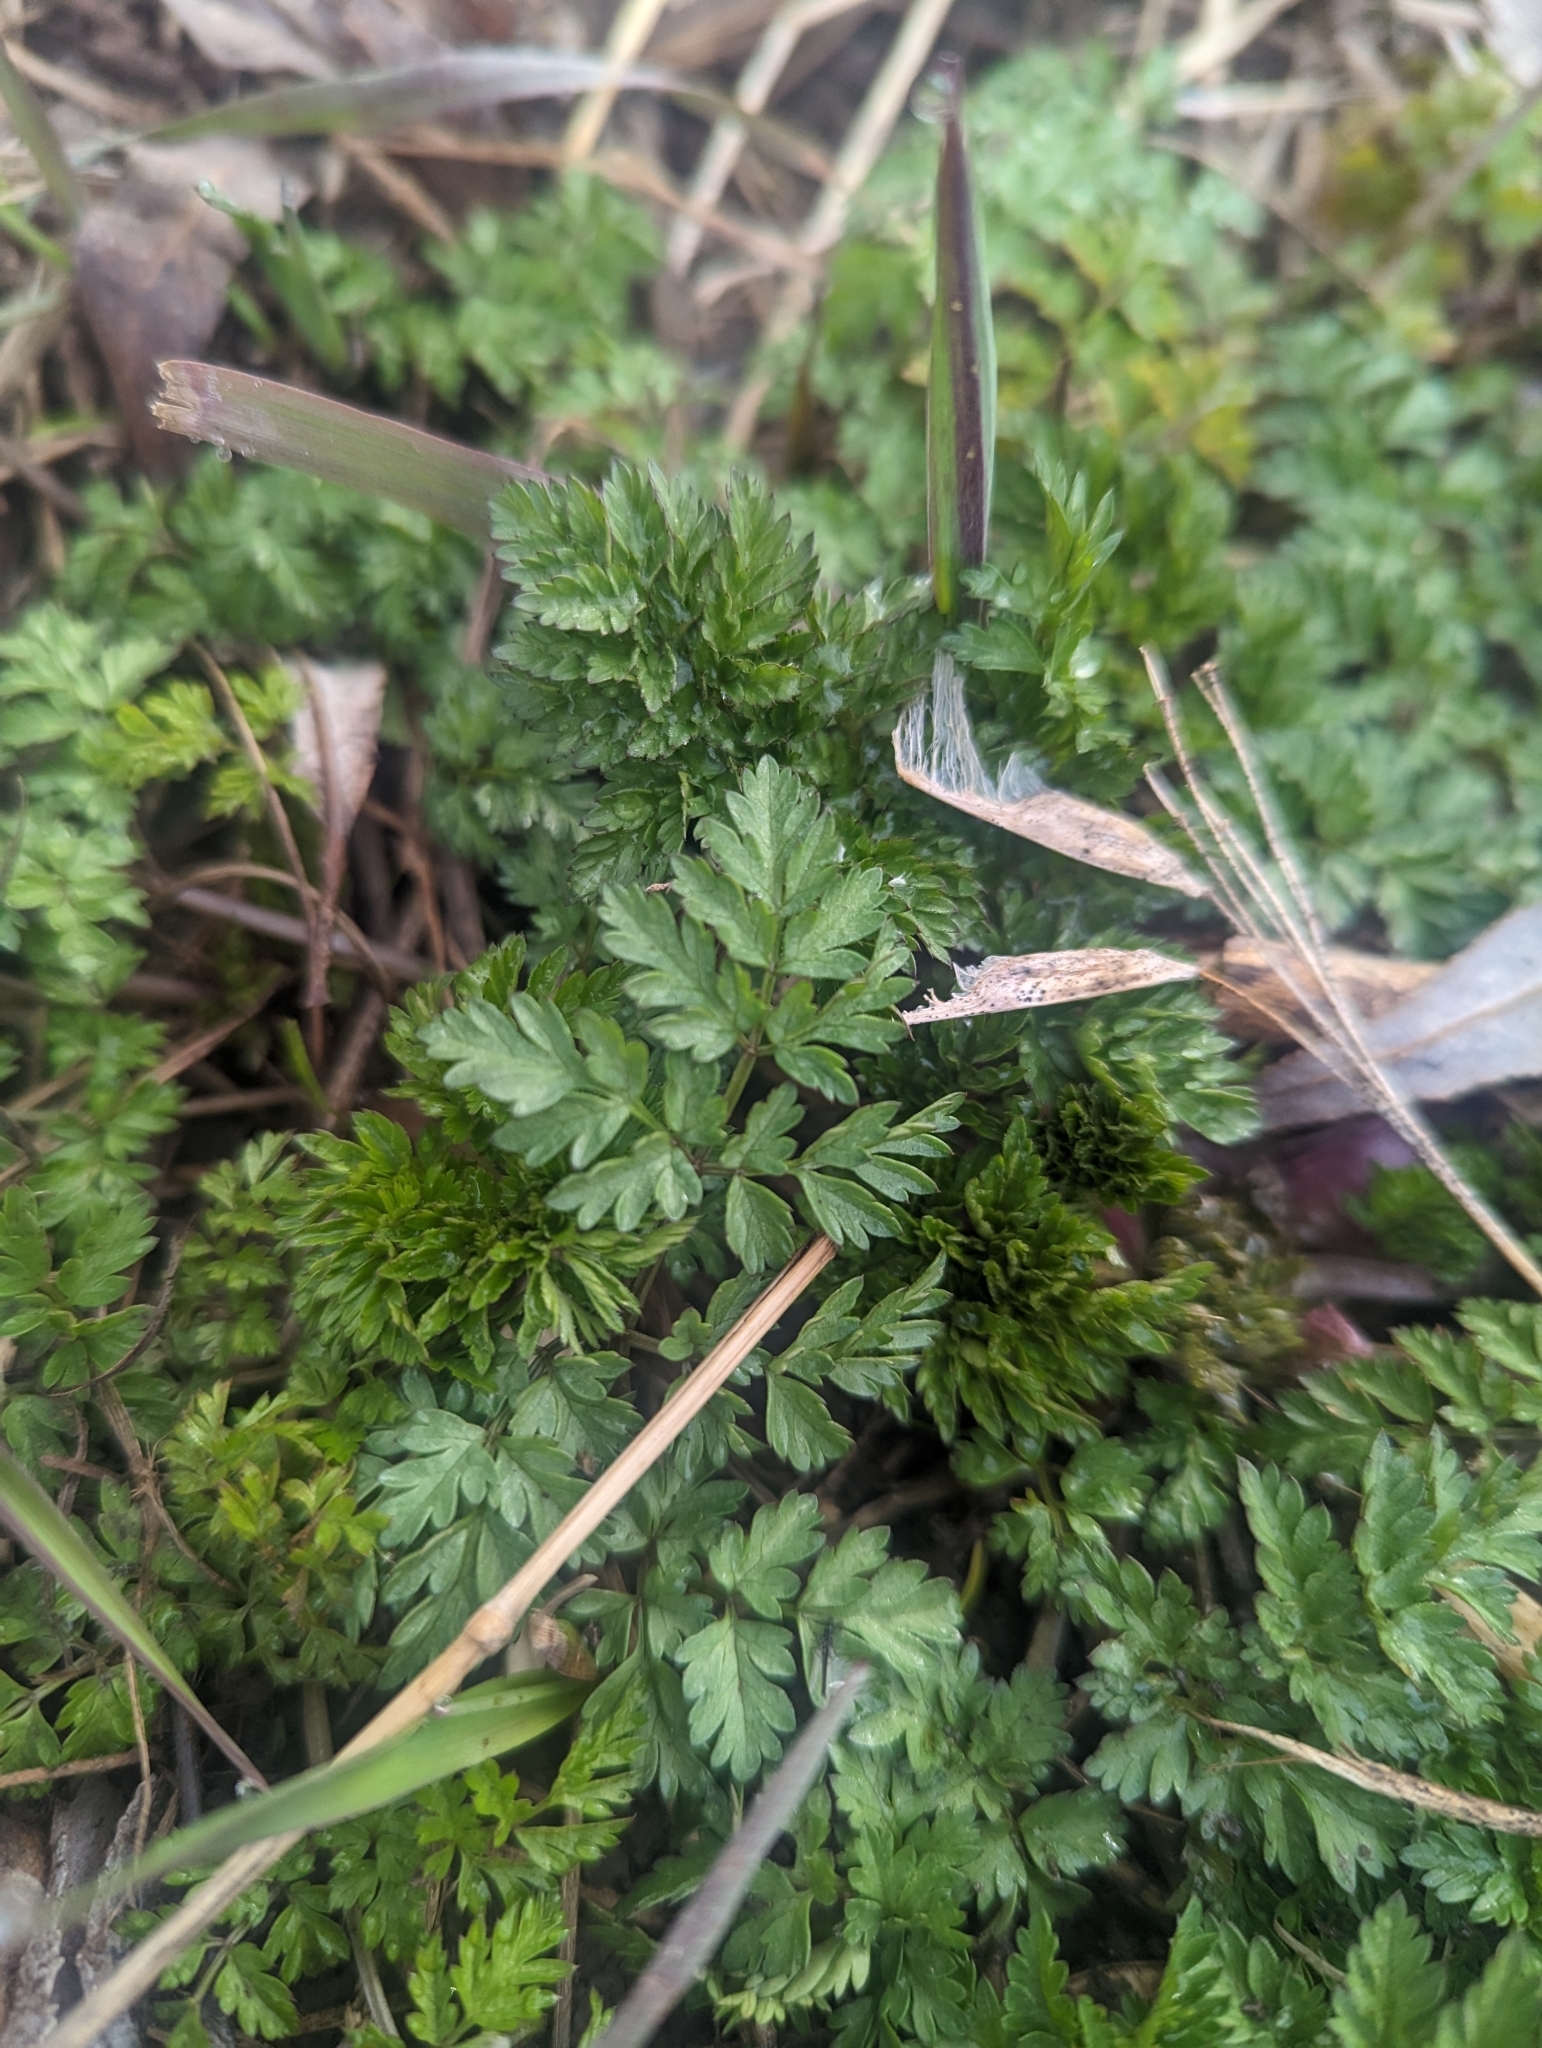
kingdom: Plantae
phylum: Tracheophyta
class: Magnoliopsida
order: Apiales
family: Apiaceae
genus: Anthriscus
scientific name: Anthriscus sylvestris
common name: Cow parsley
